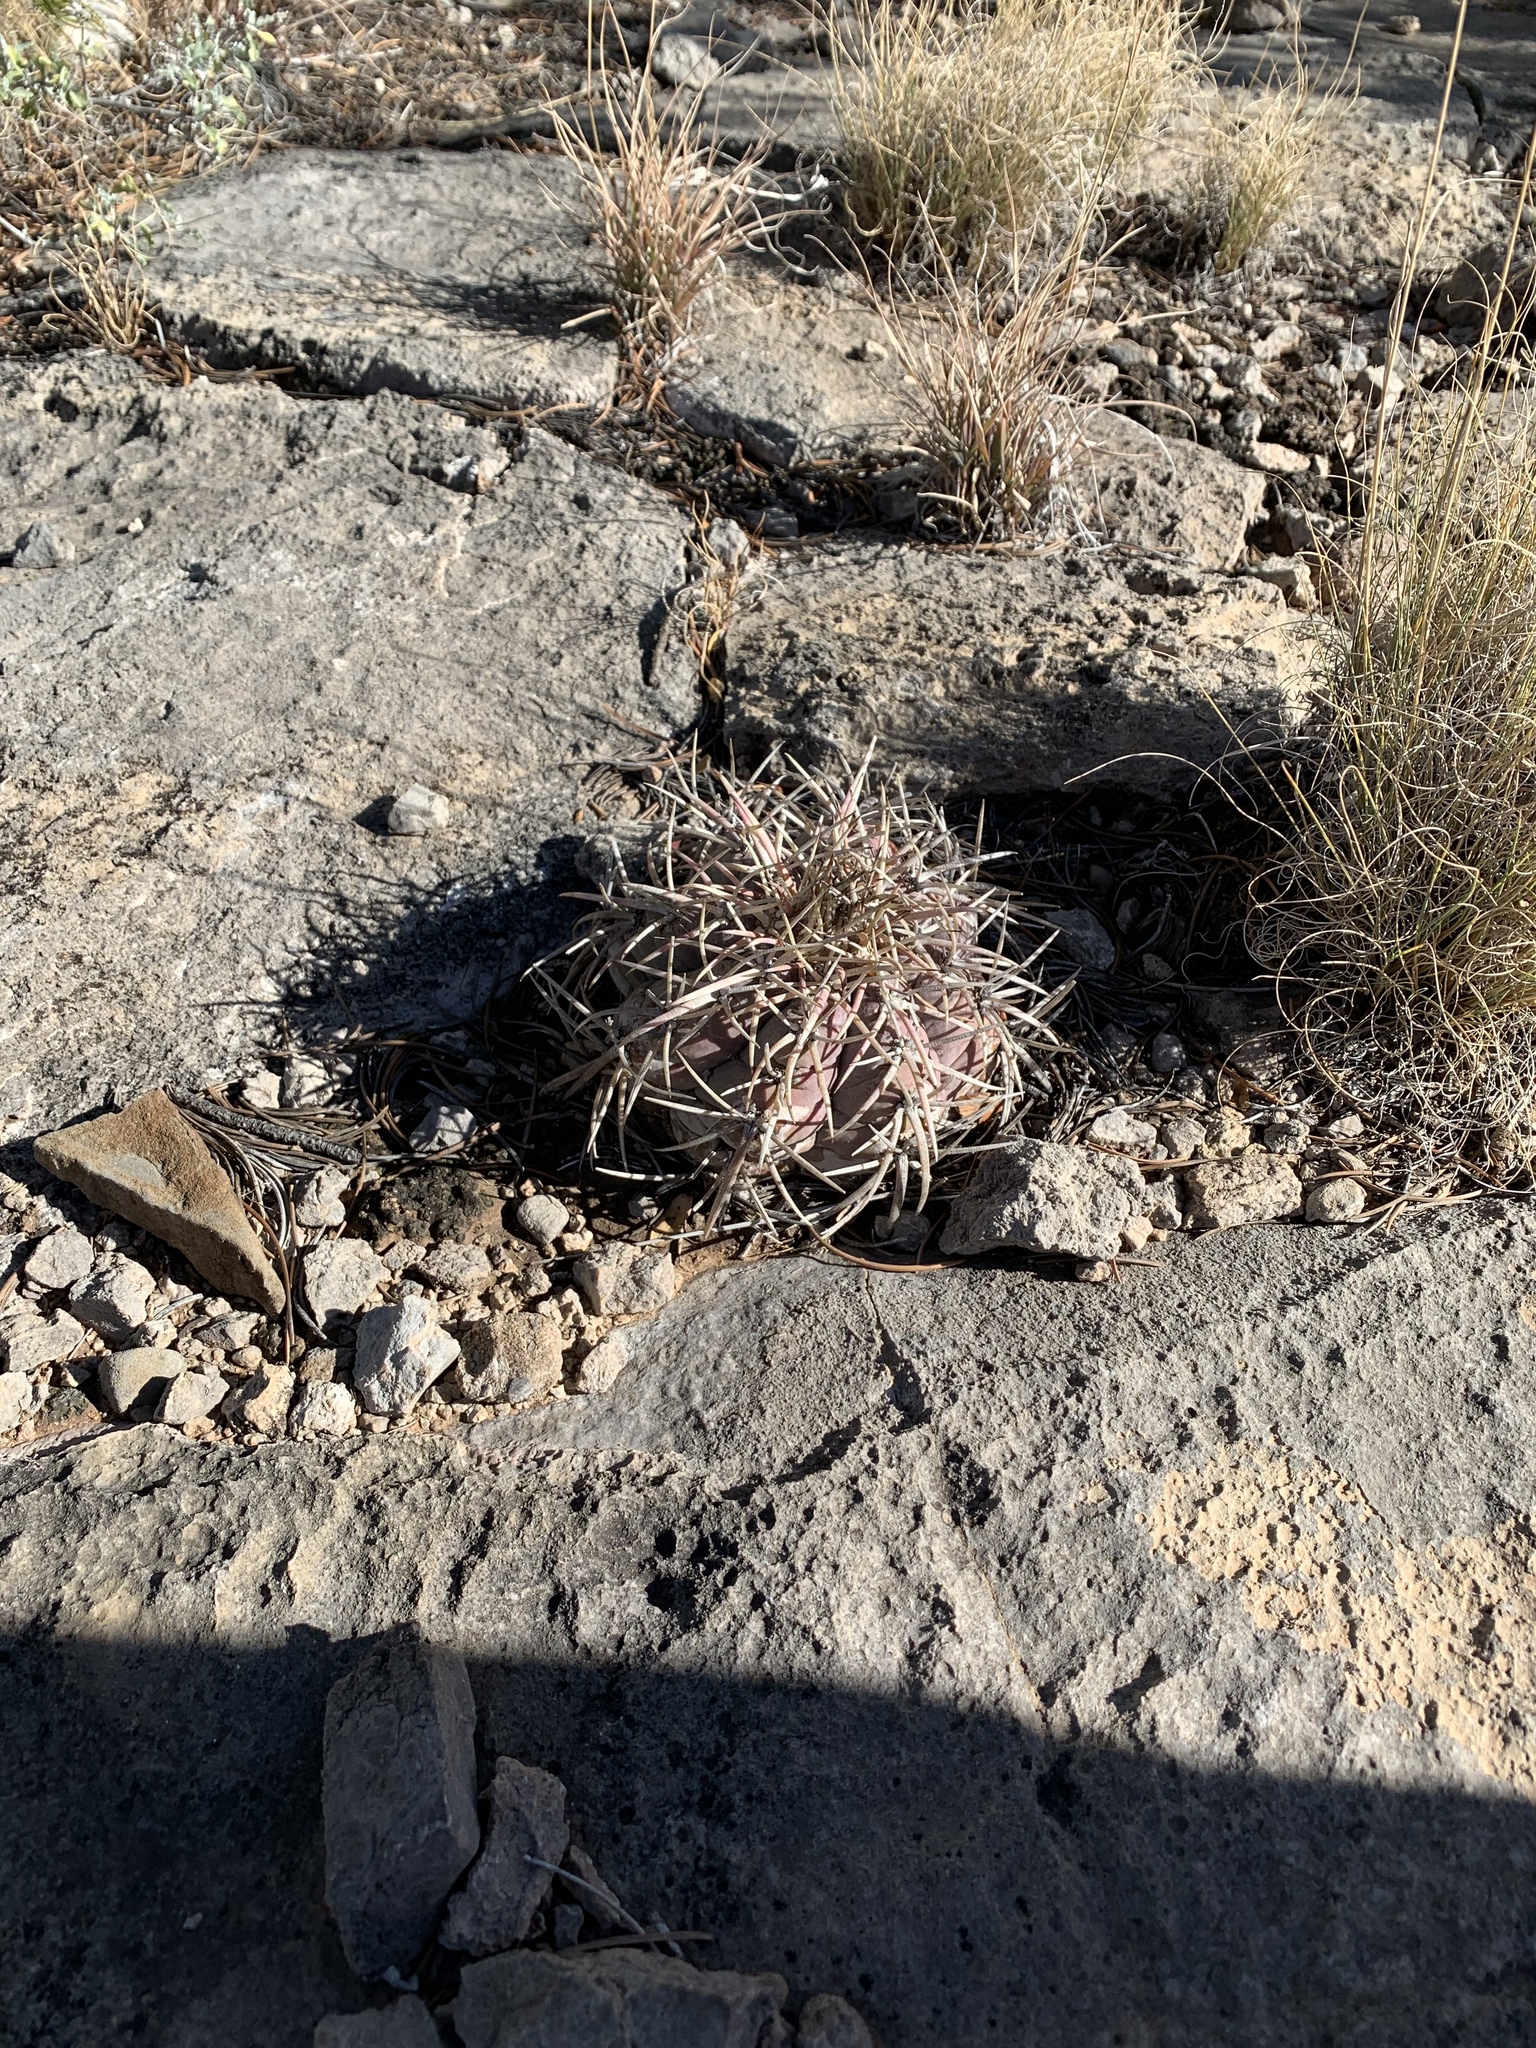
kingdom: Plantae
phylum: Tracheophyta
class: Magnoliopsida
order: Caryophyllales
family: Cactaceae
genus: Echinocactus
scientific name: Echinocactus horizonthalonius
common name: Devilshead
